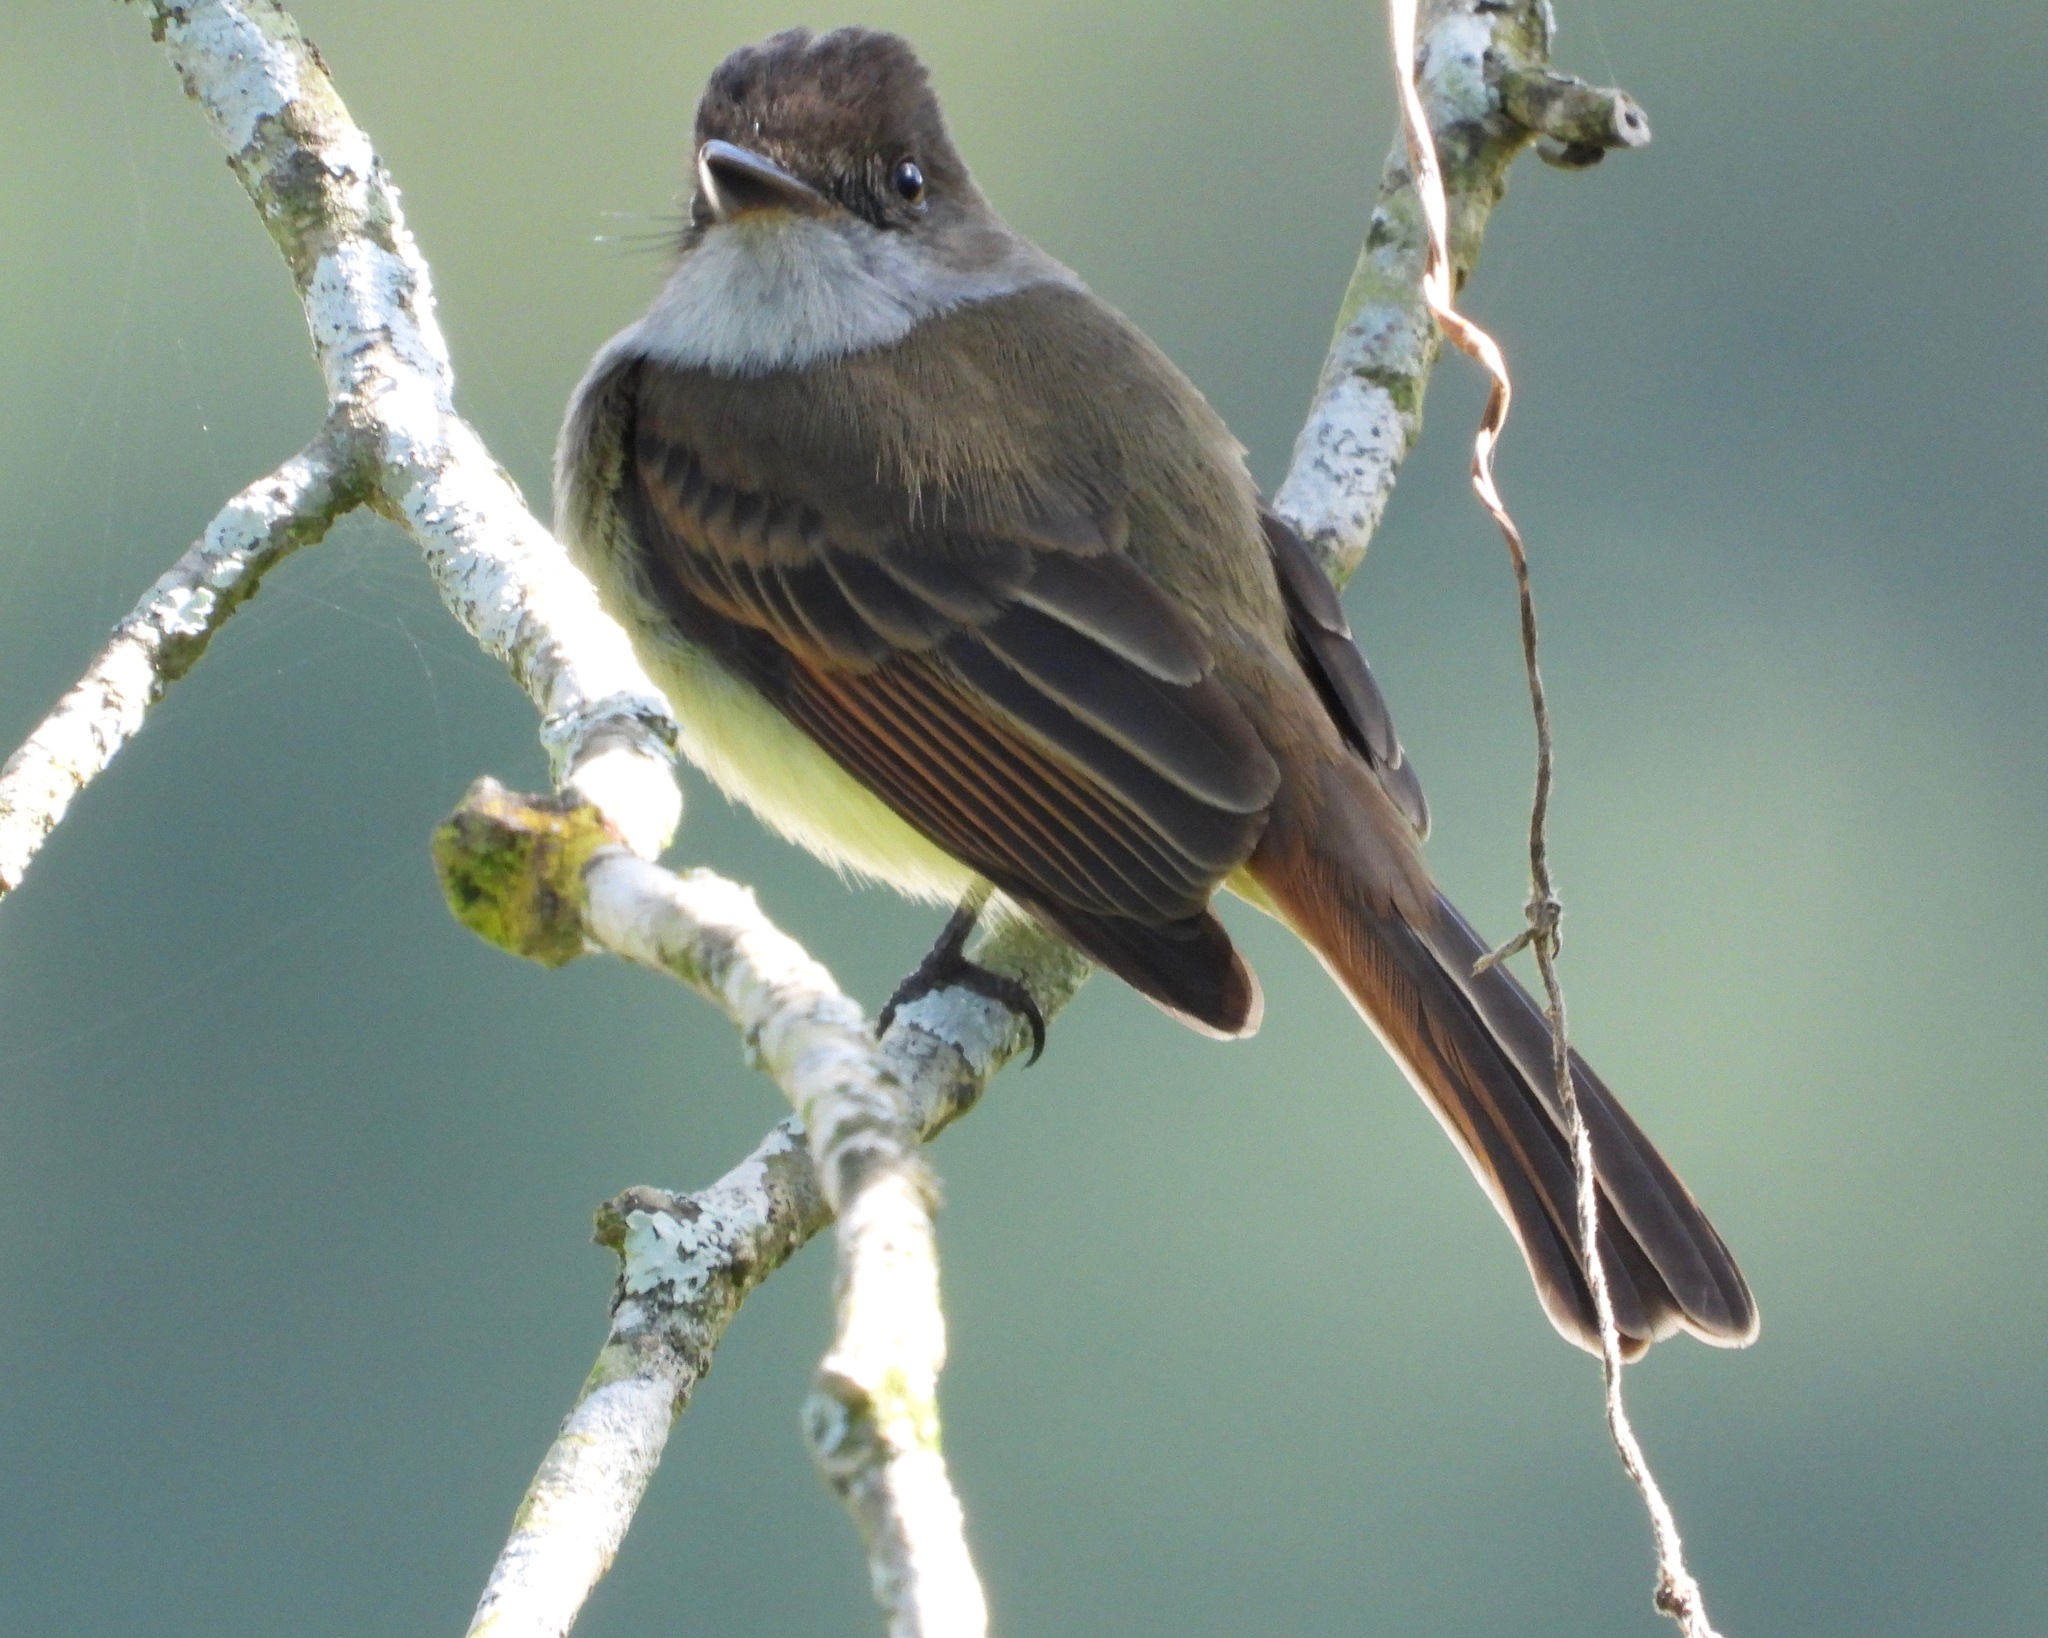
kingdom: Animalia
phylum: Chordata
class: Aves
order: Passeriformes
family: Tyrannidae
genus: Myiarchus
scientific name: Myiarchus tuberculifer
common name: Dusky-capped flycatcher
